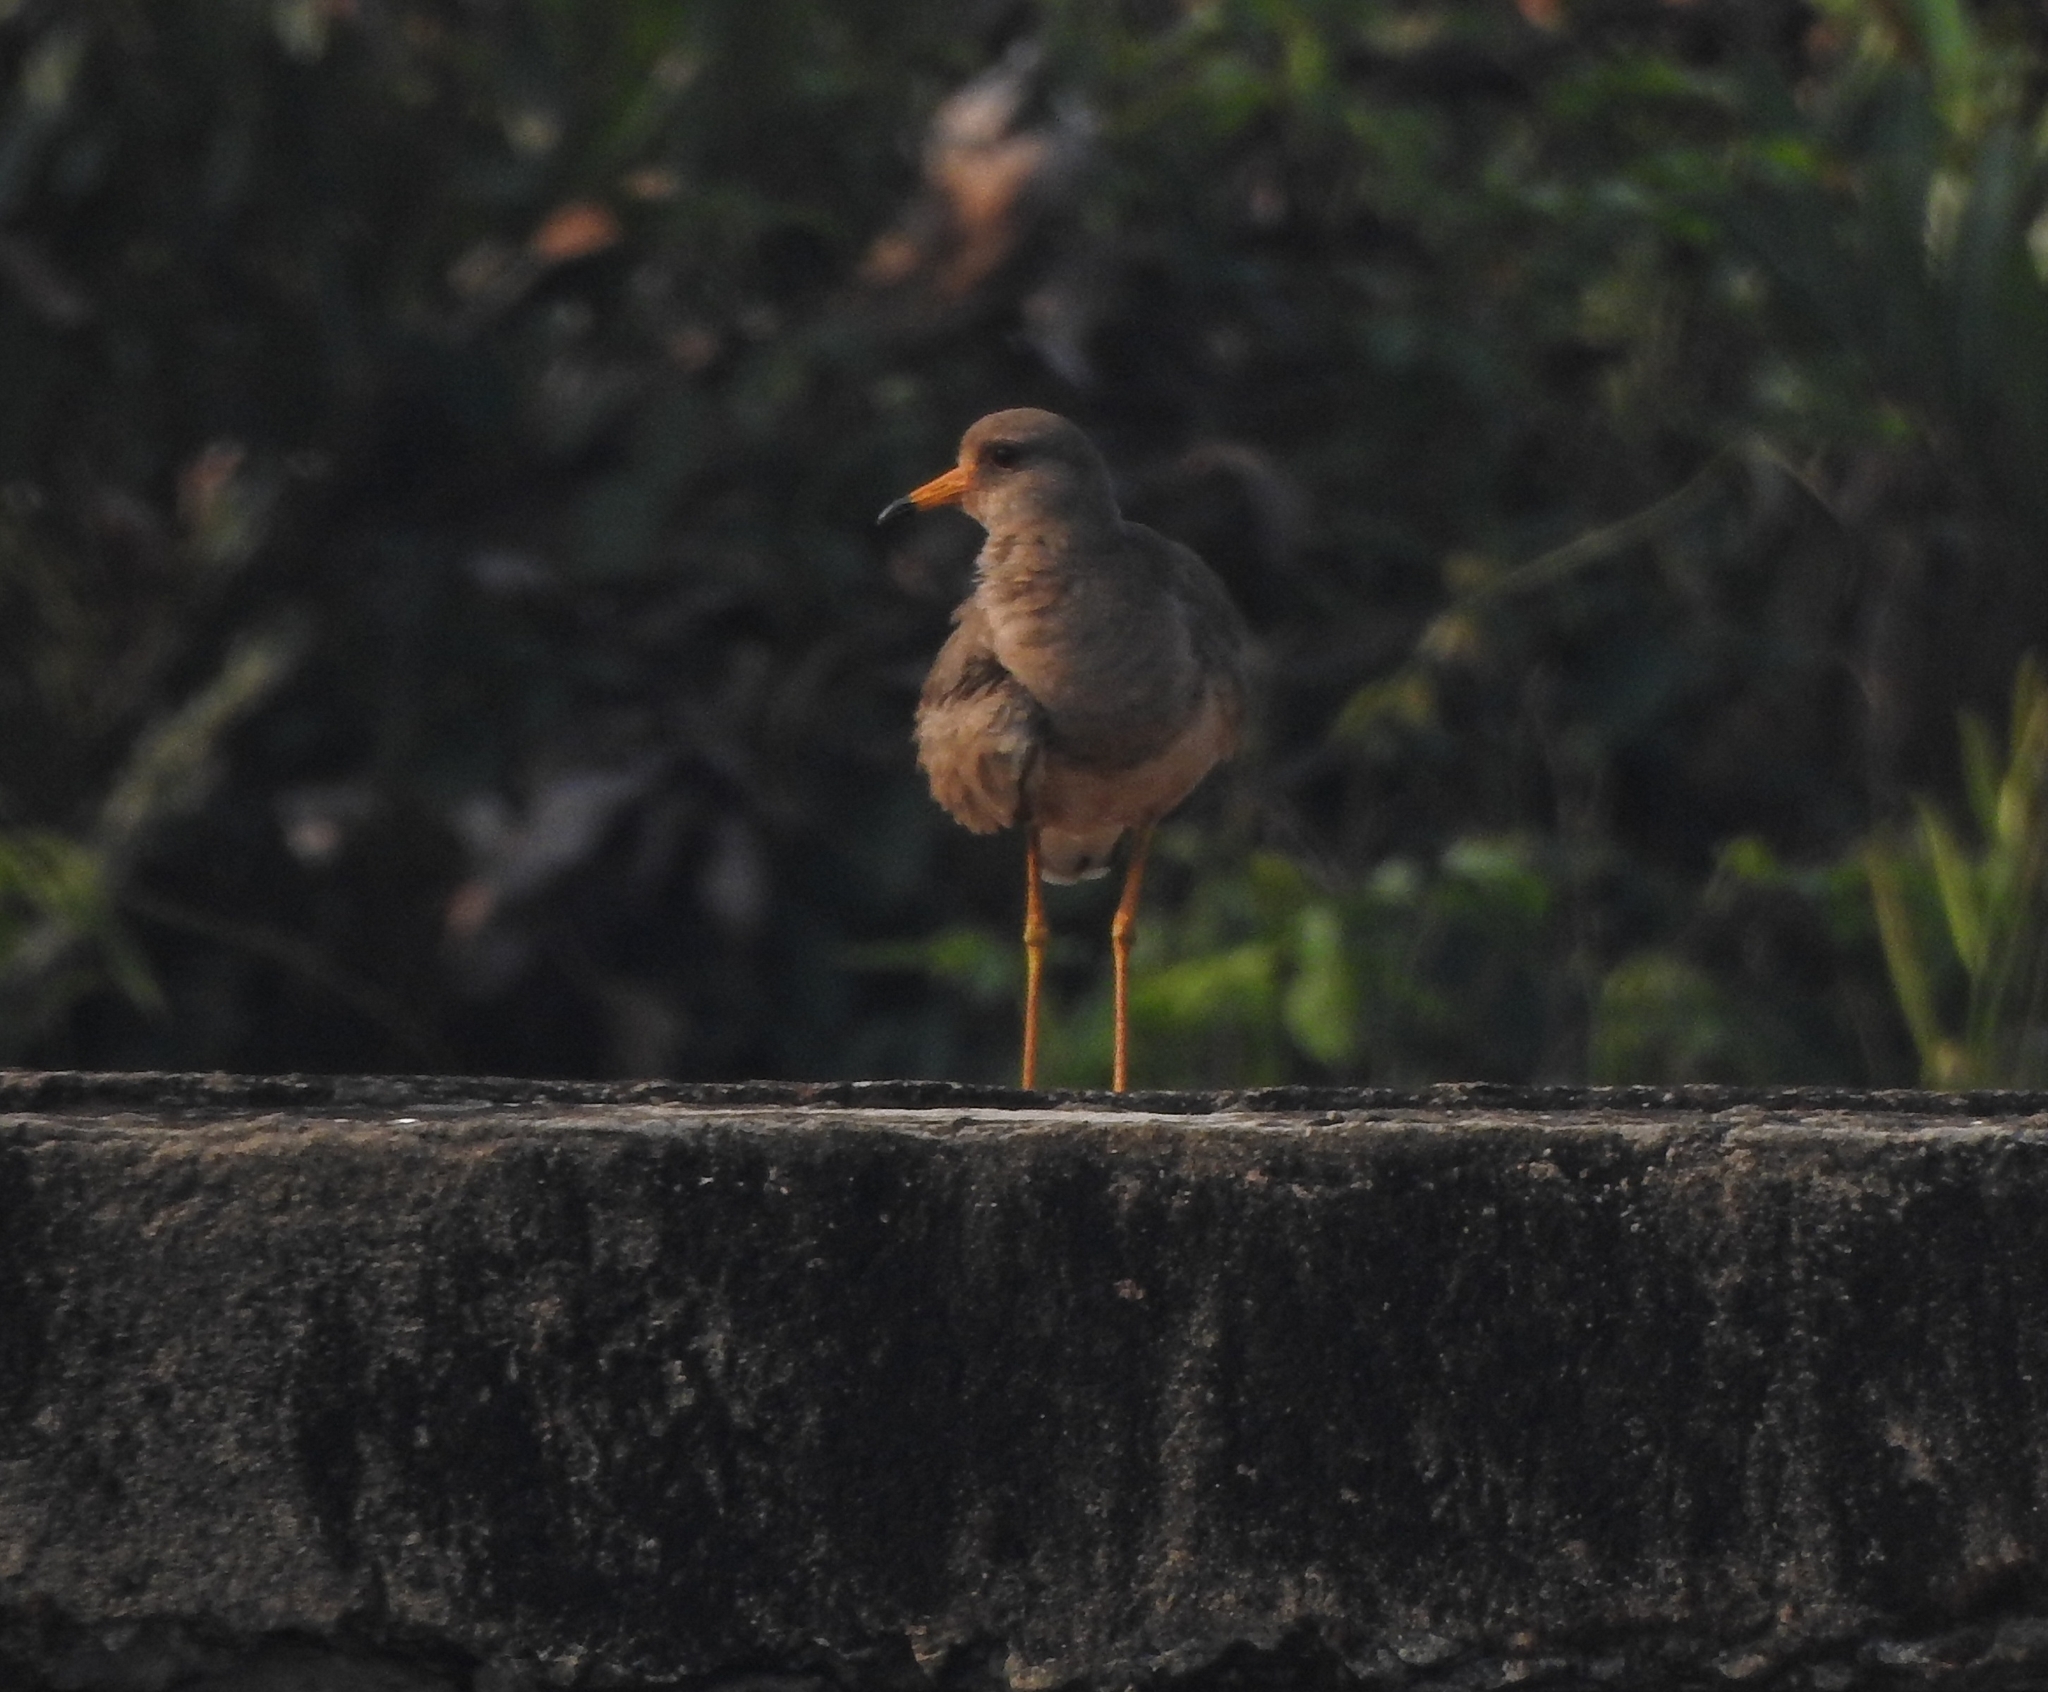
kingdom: Animalia
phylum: Chordata
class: Aves
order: Charadriiformes
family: Charadriidae
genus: Vanellus
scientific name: Vanellus cinereus
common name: Grey-headed lapwing
